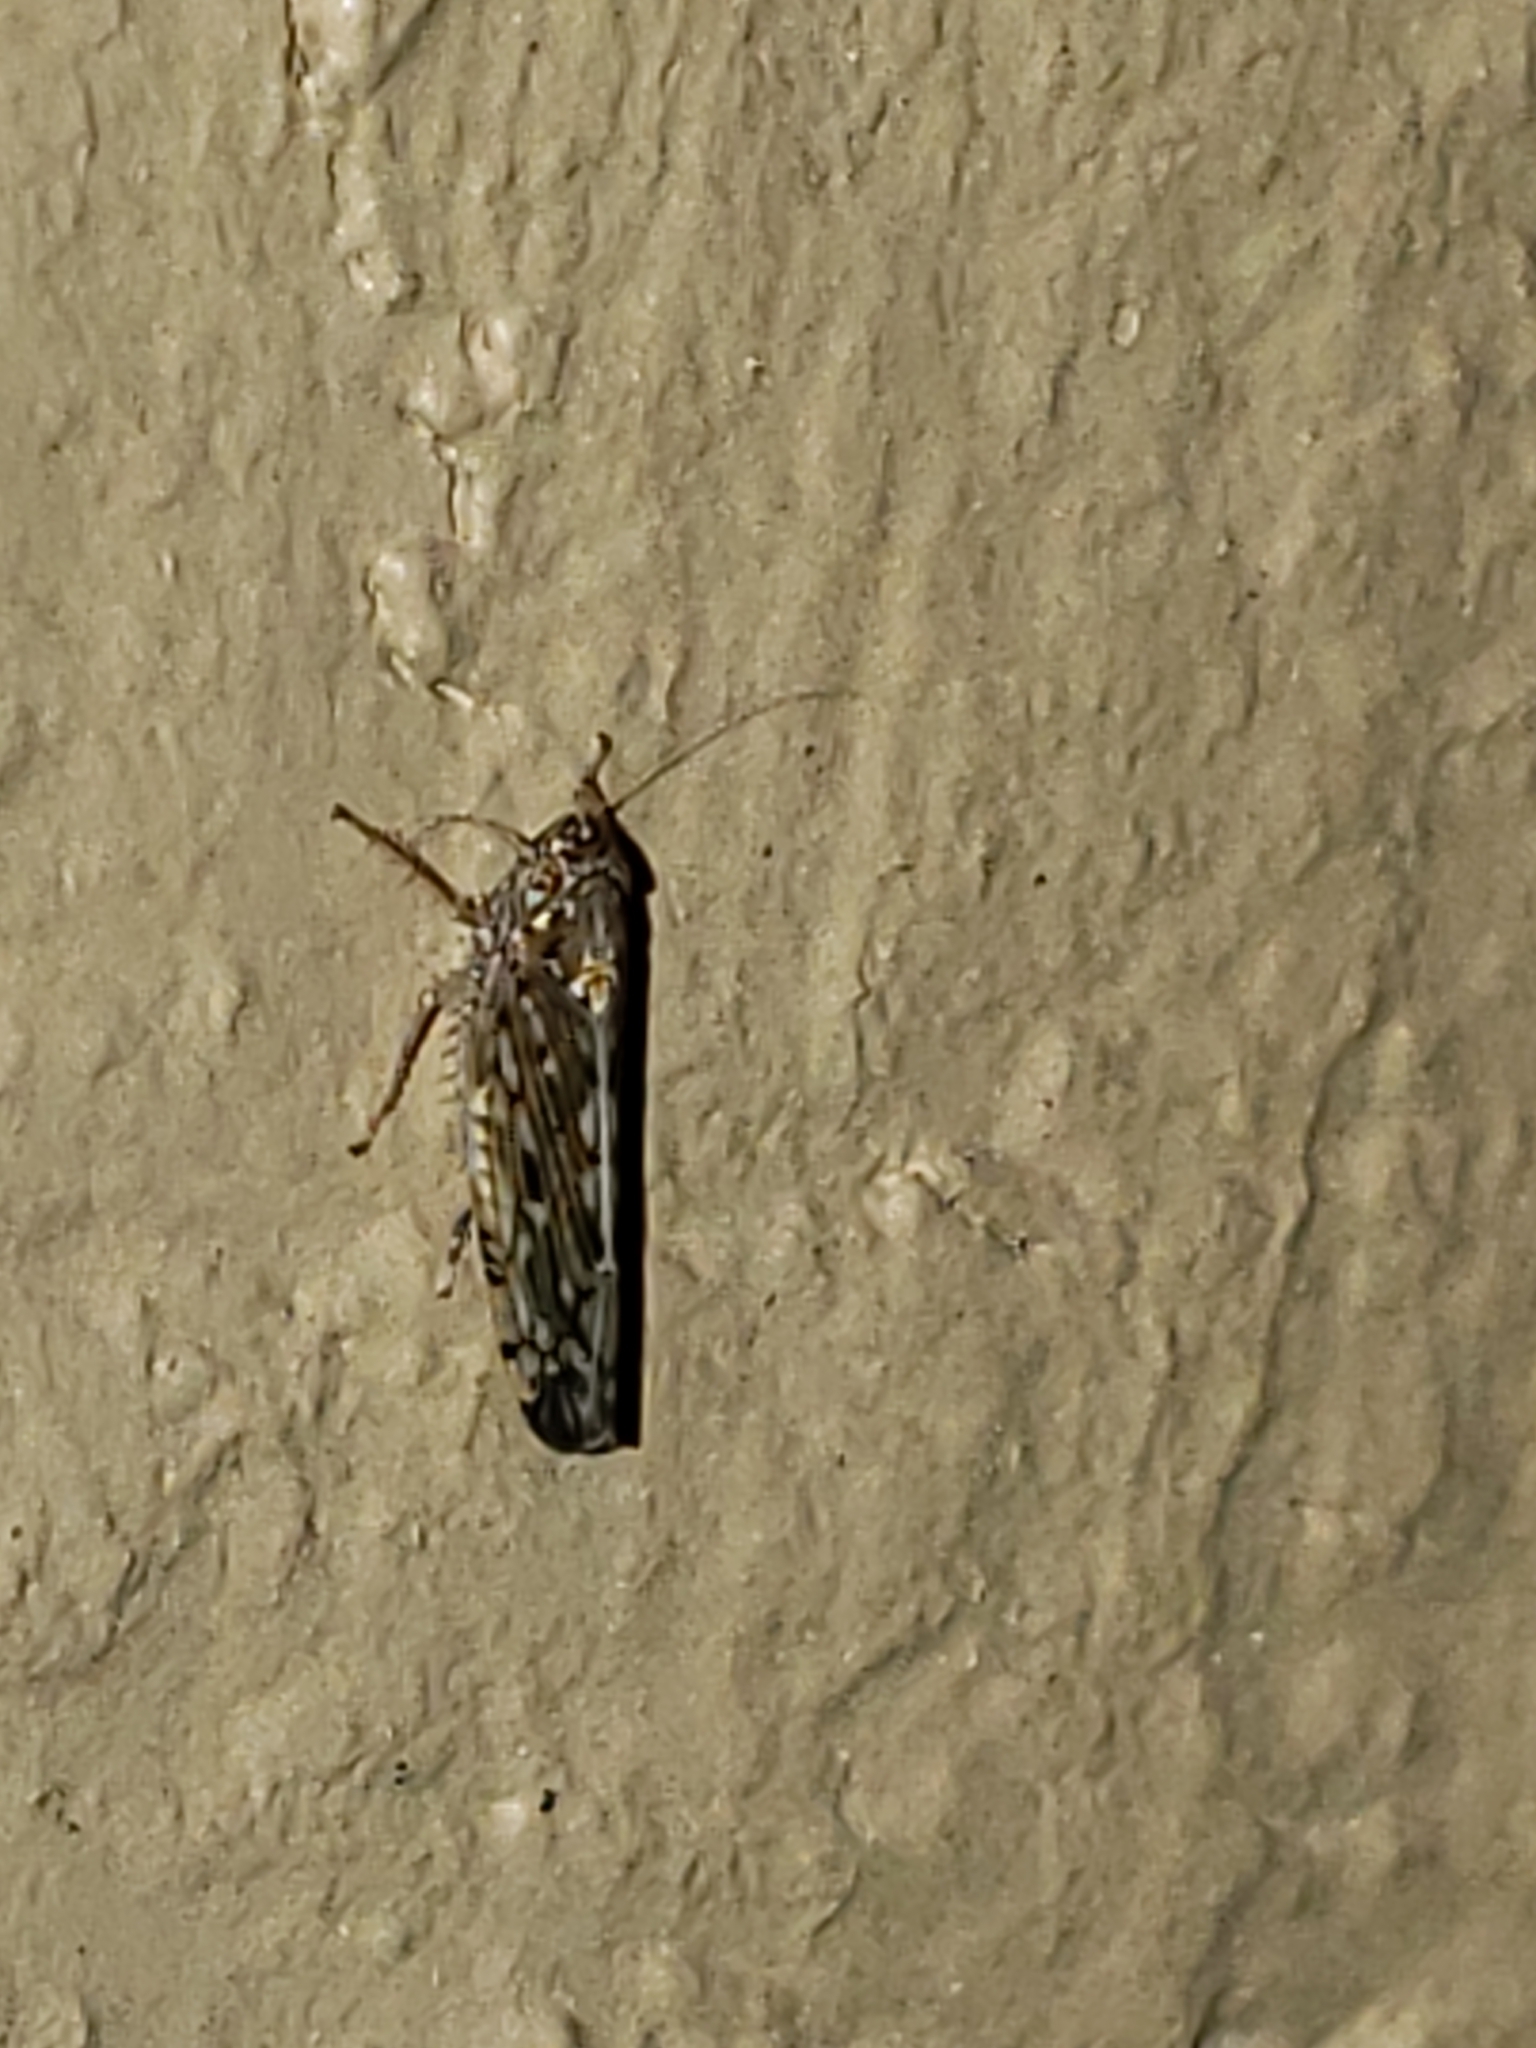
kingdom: Animalia
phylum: Arthropoda
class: Insecta
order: Hemiptera
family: Cicadellidae
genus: Osbornellus
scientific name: Osbornellus clarus
